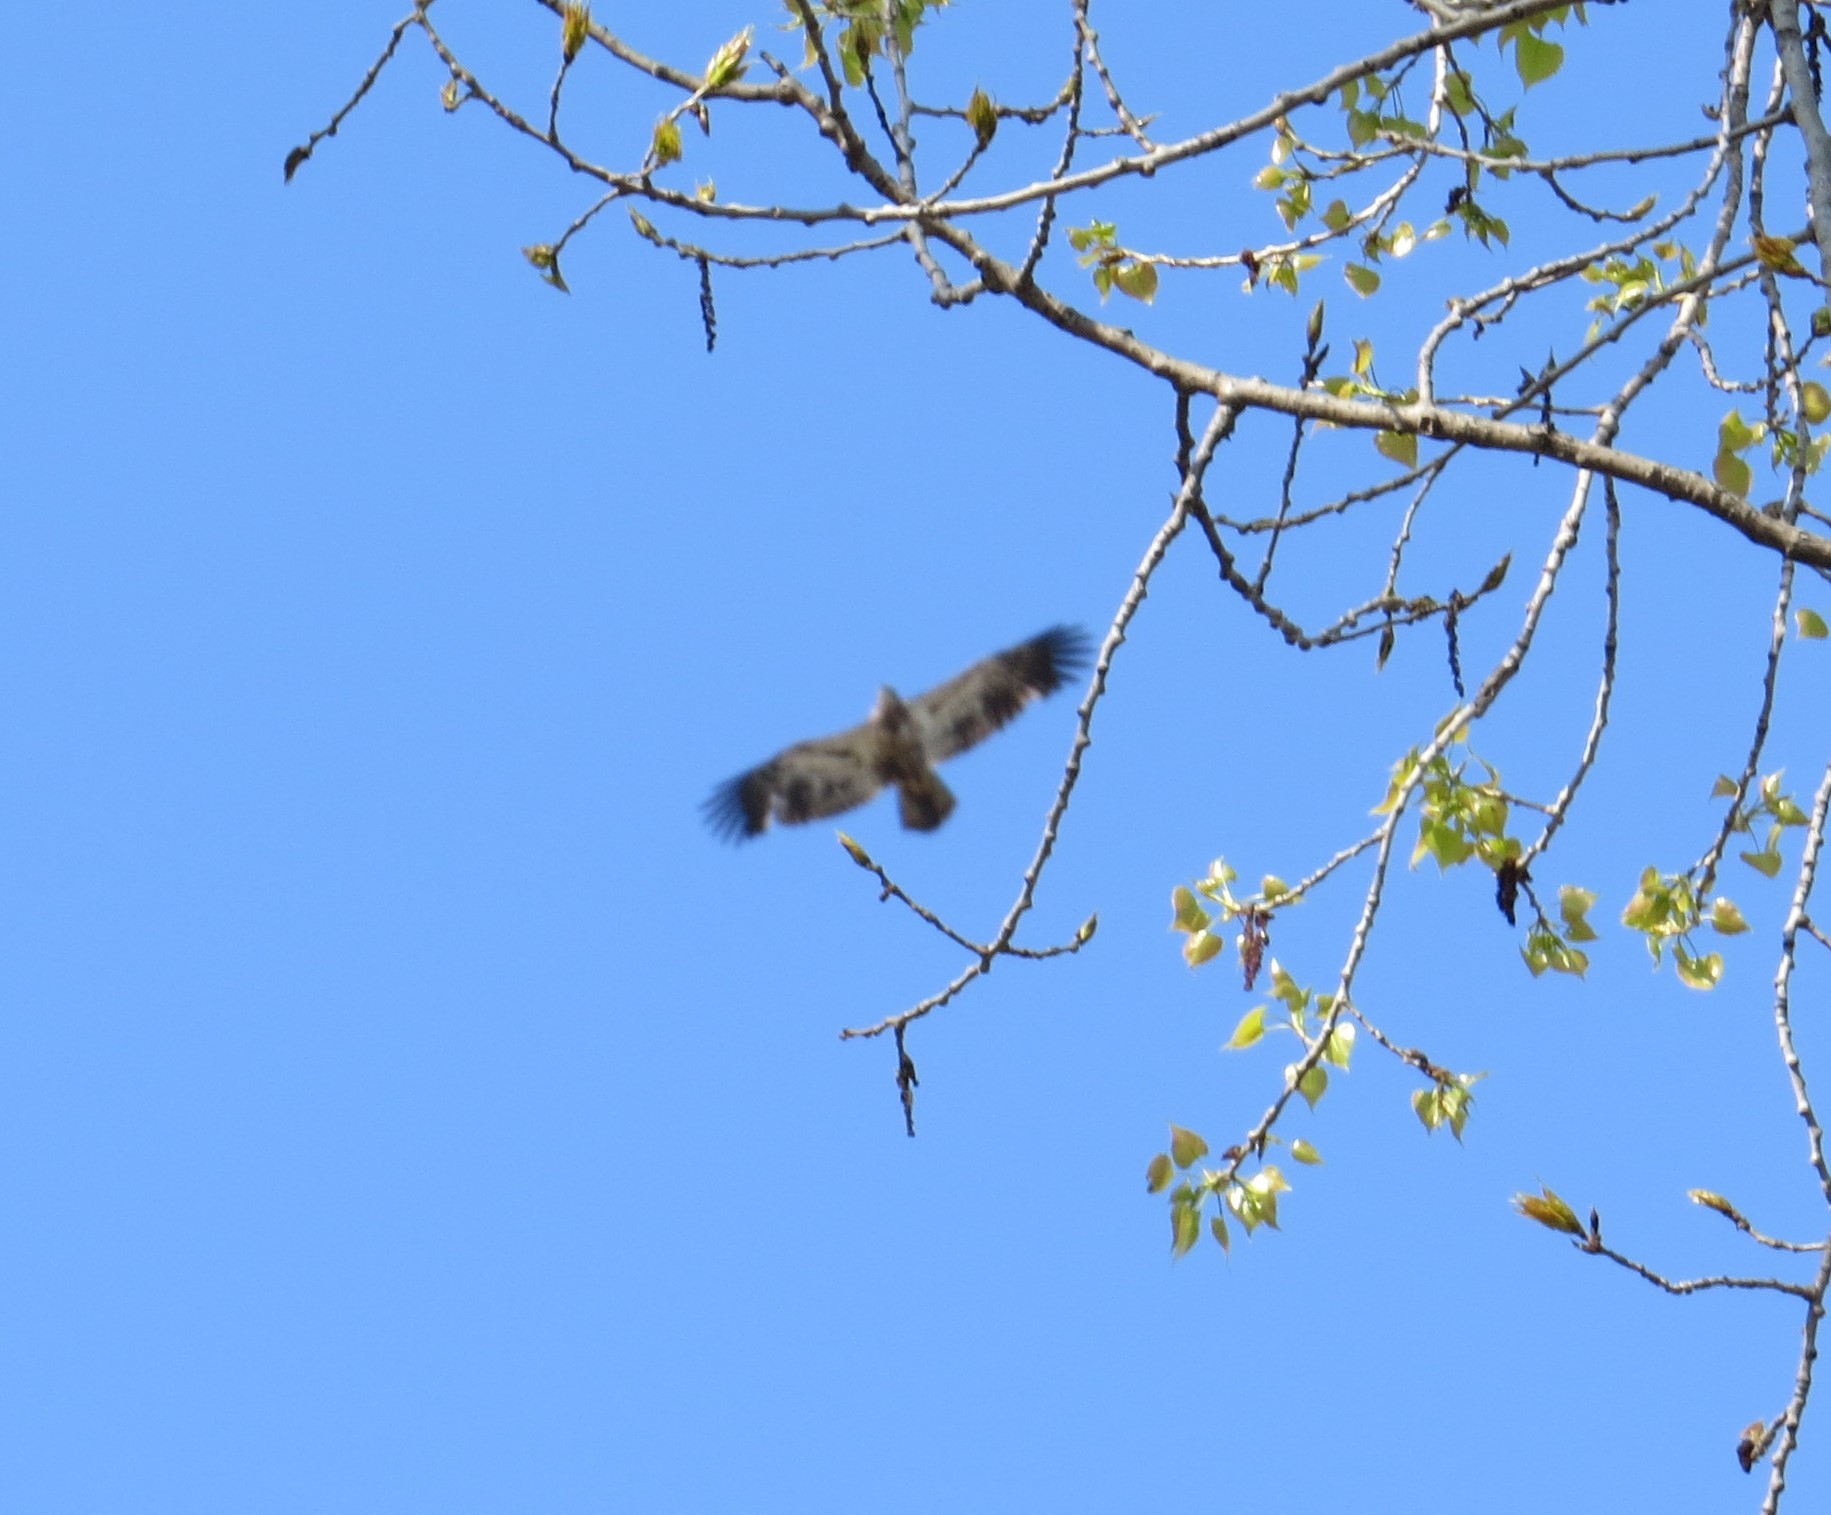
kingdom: Animalia
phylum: Chordata
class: Aves
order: Accipitriformes
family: Accipitridae
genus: Haliaeetus
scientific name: Haliaeetus leucocephalus
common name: Bald eagle
